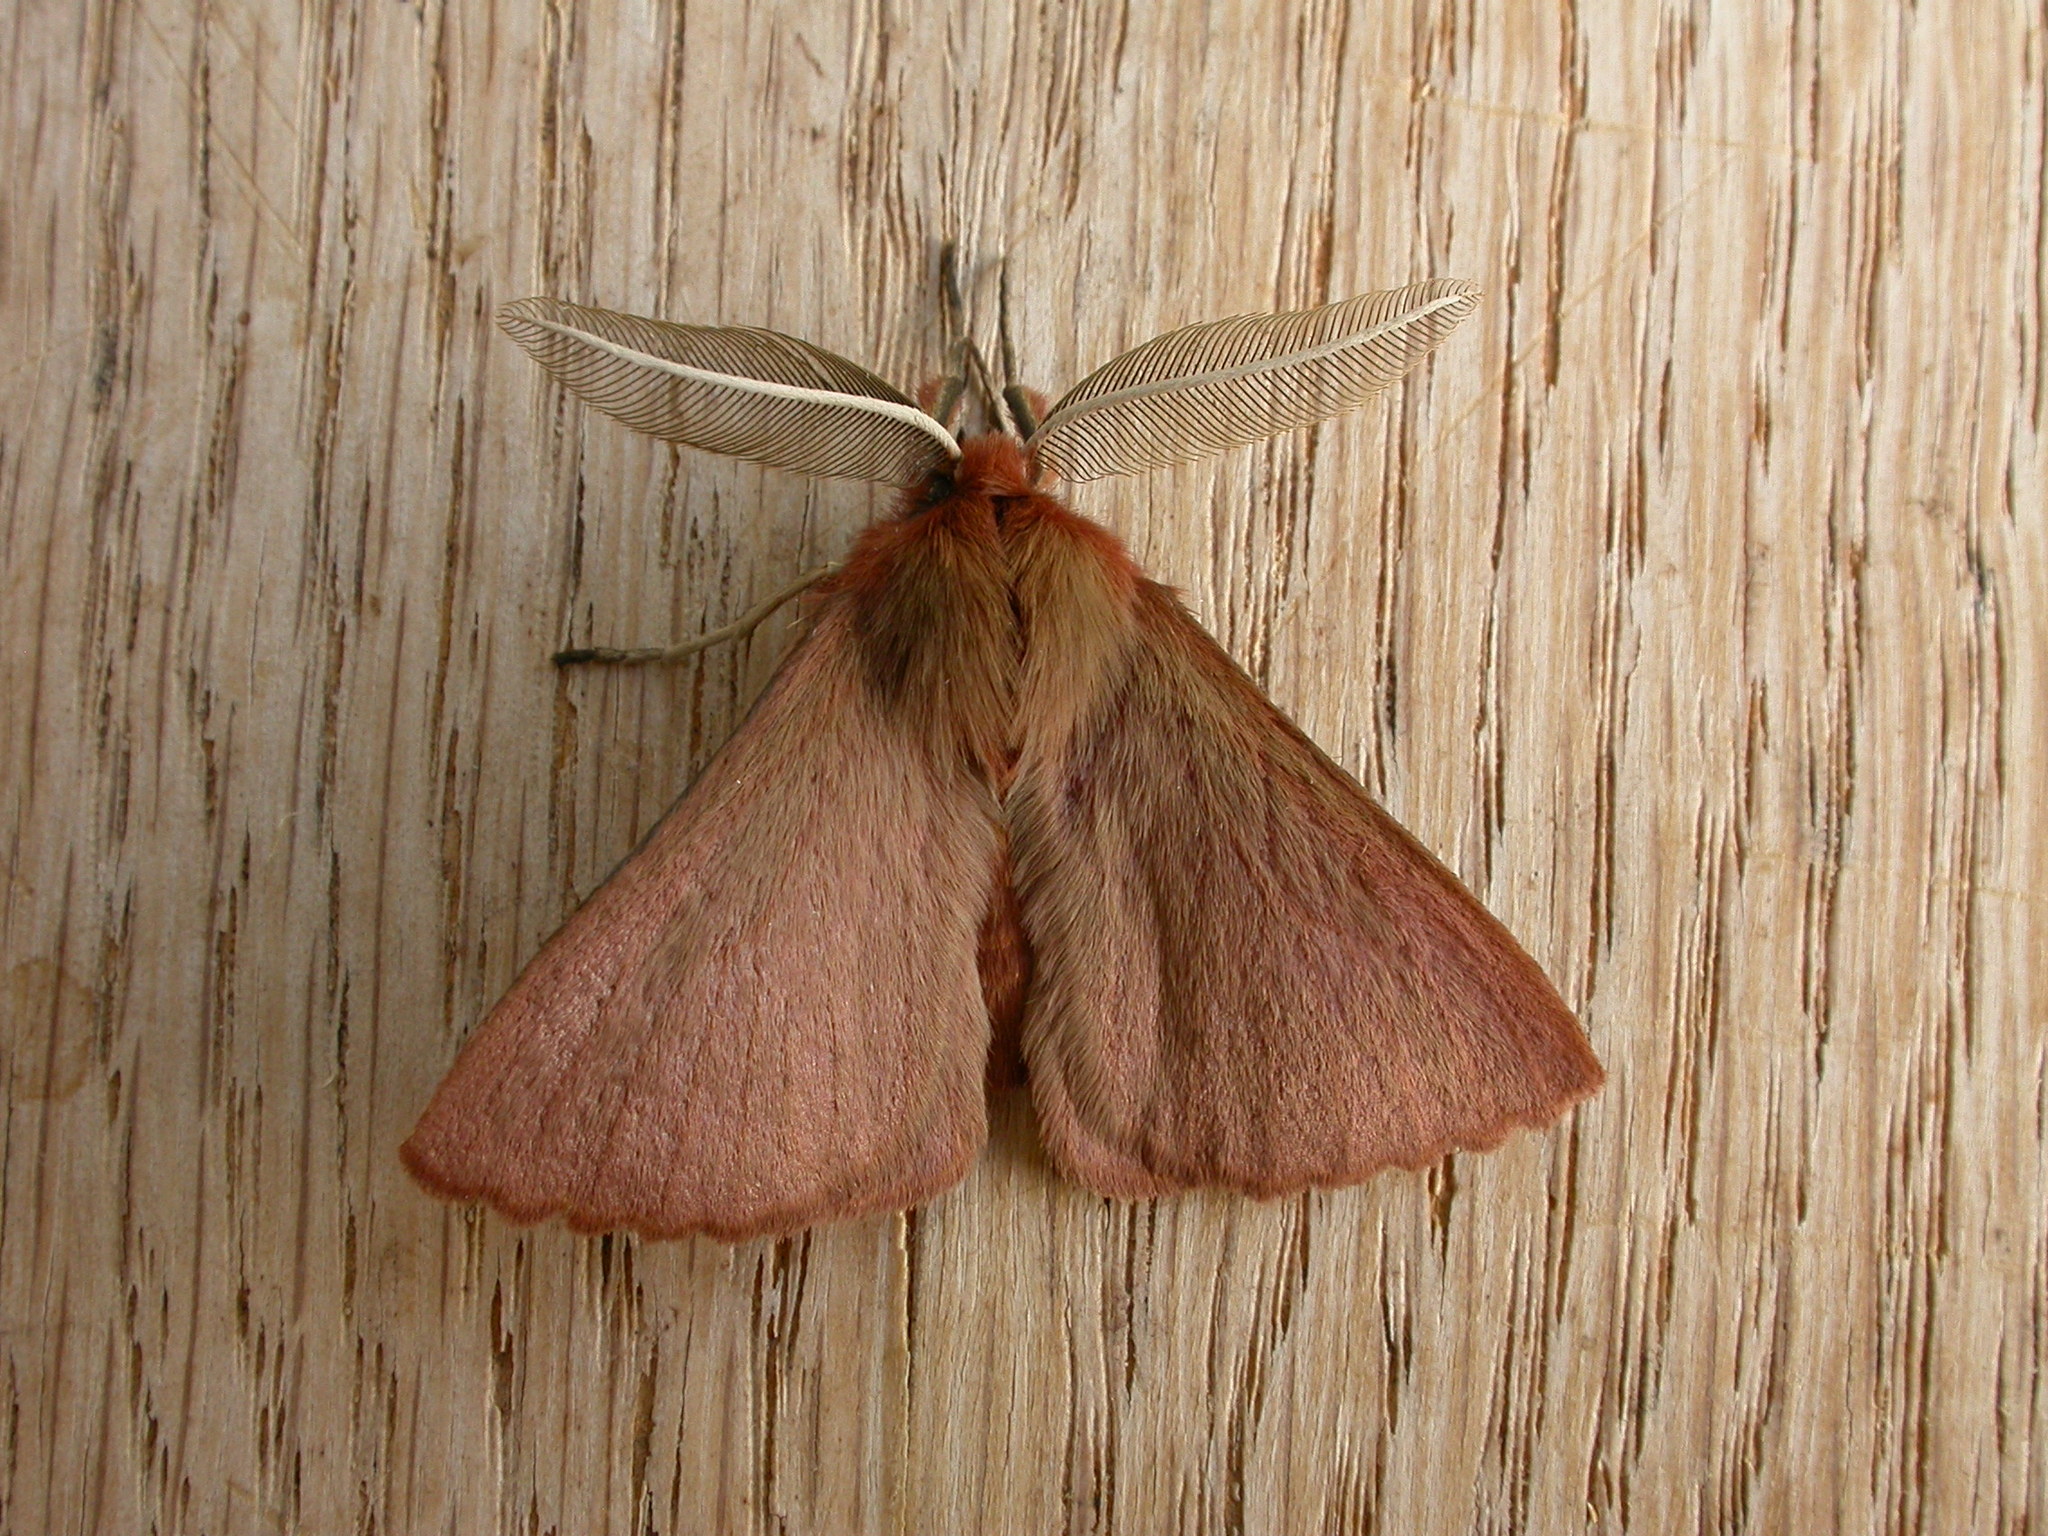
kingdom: Animalia
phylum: Arthropoda
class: Insecta
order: Lepidoptera
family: Anthelidae
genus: Pterolocera
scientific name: Pterolocera leucocera
